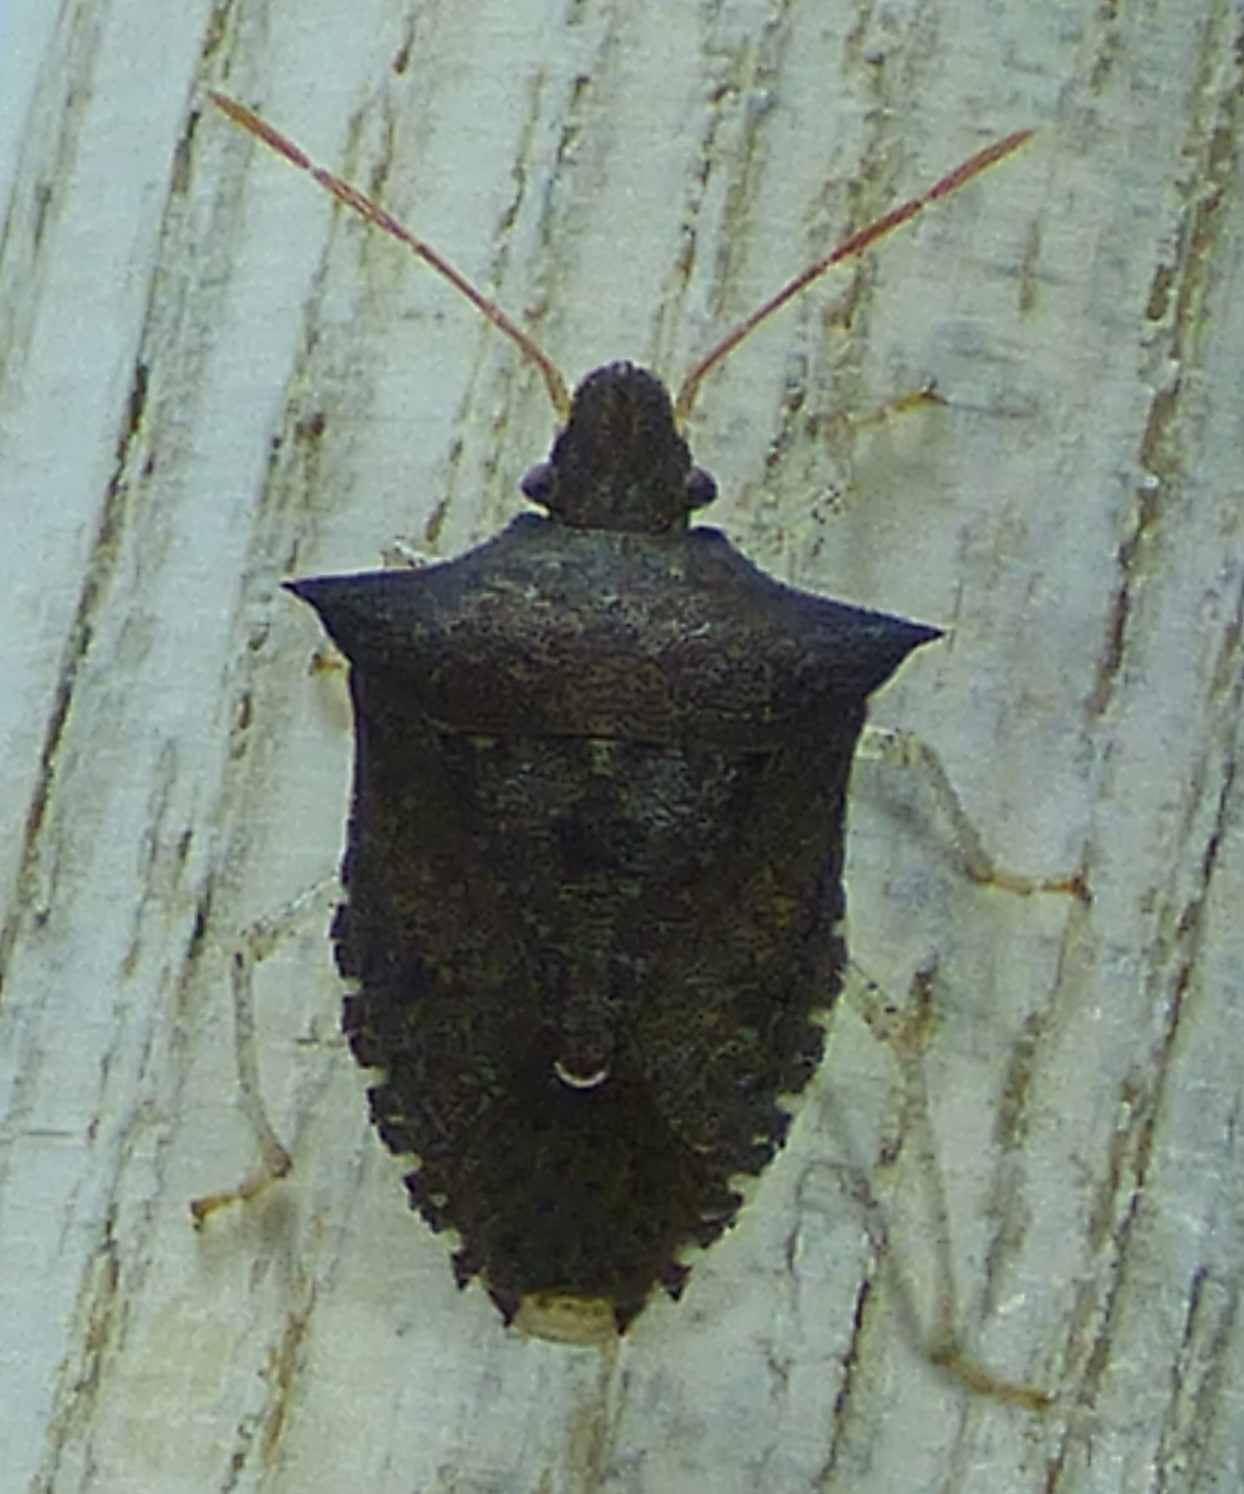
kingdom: Animalia
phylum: Arthropoda
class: Insecta
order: Hemiptera
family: Pentatomidae
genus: Euschistus
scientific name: Euschistus tristigmus
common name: Dusky stink bug
